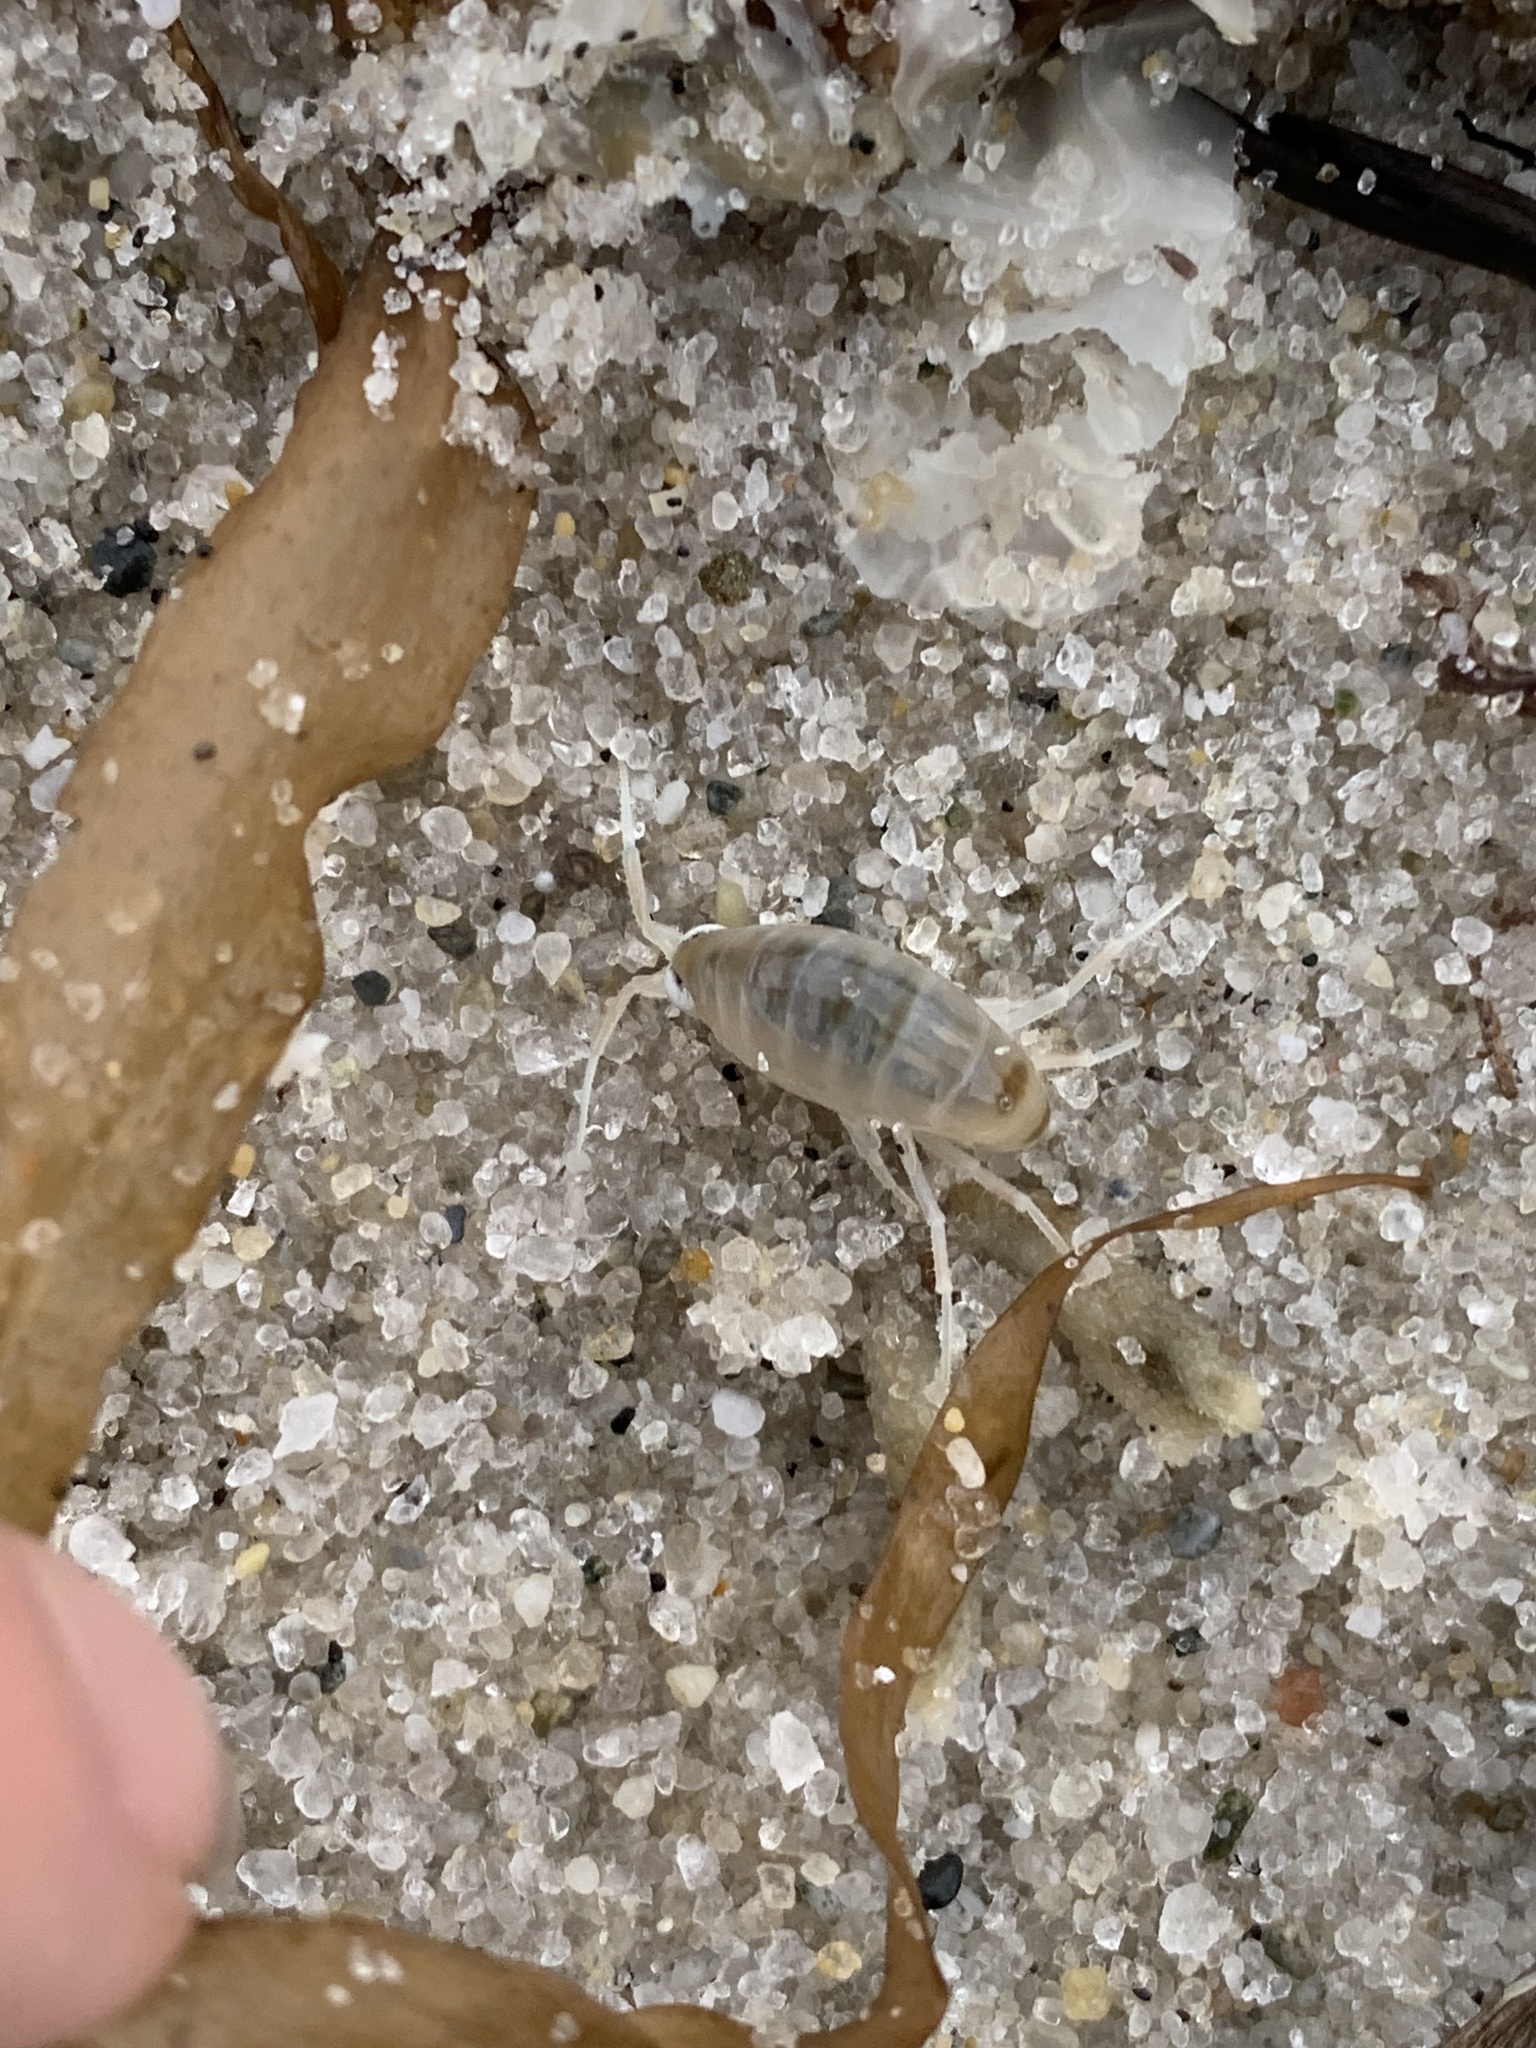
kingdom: Animalia
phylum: Arthropoda
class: Malacostraca
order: Amphipoda
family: Talitridae
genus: Americorchestia
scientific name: Americorchestia
